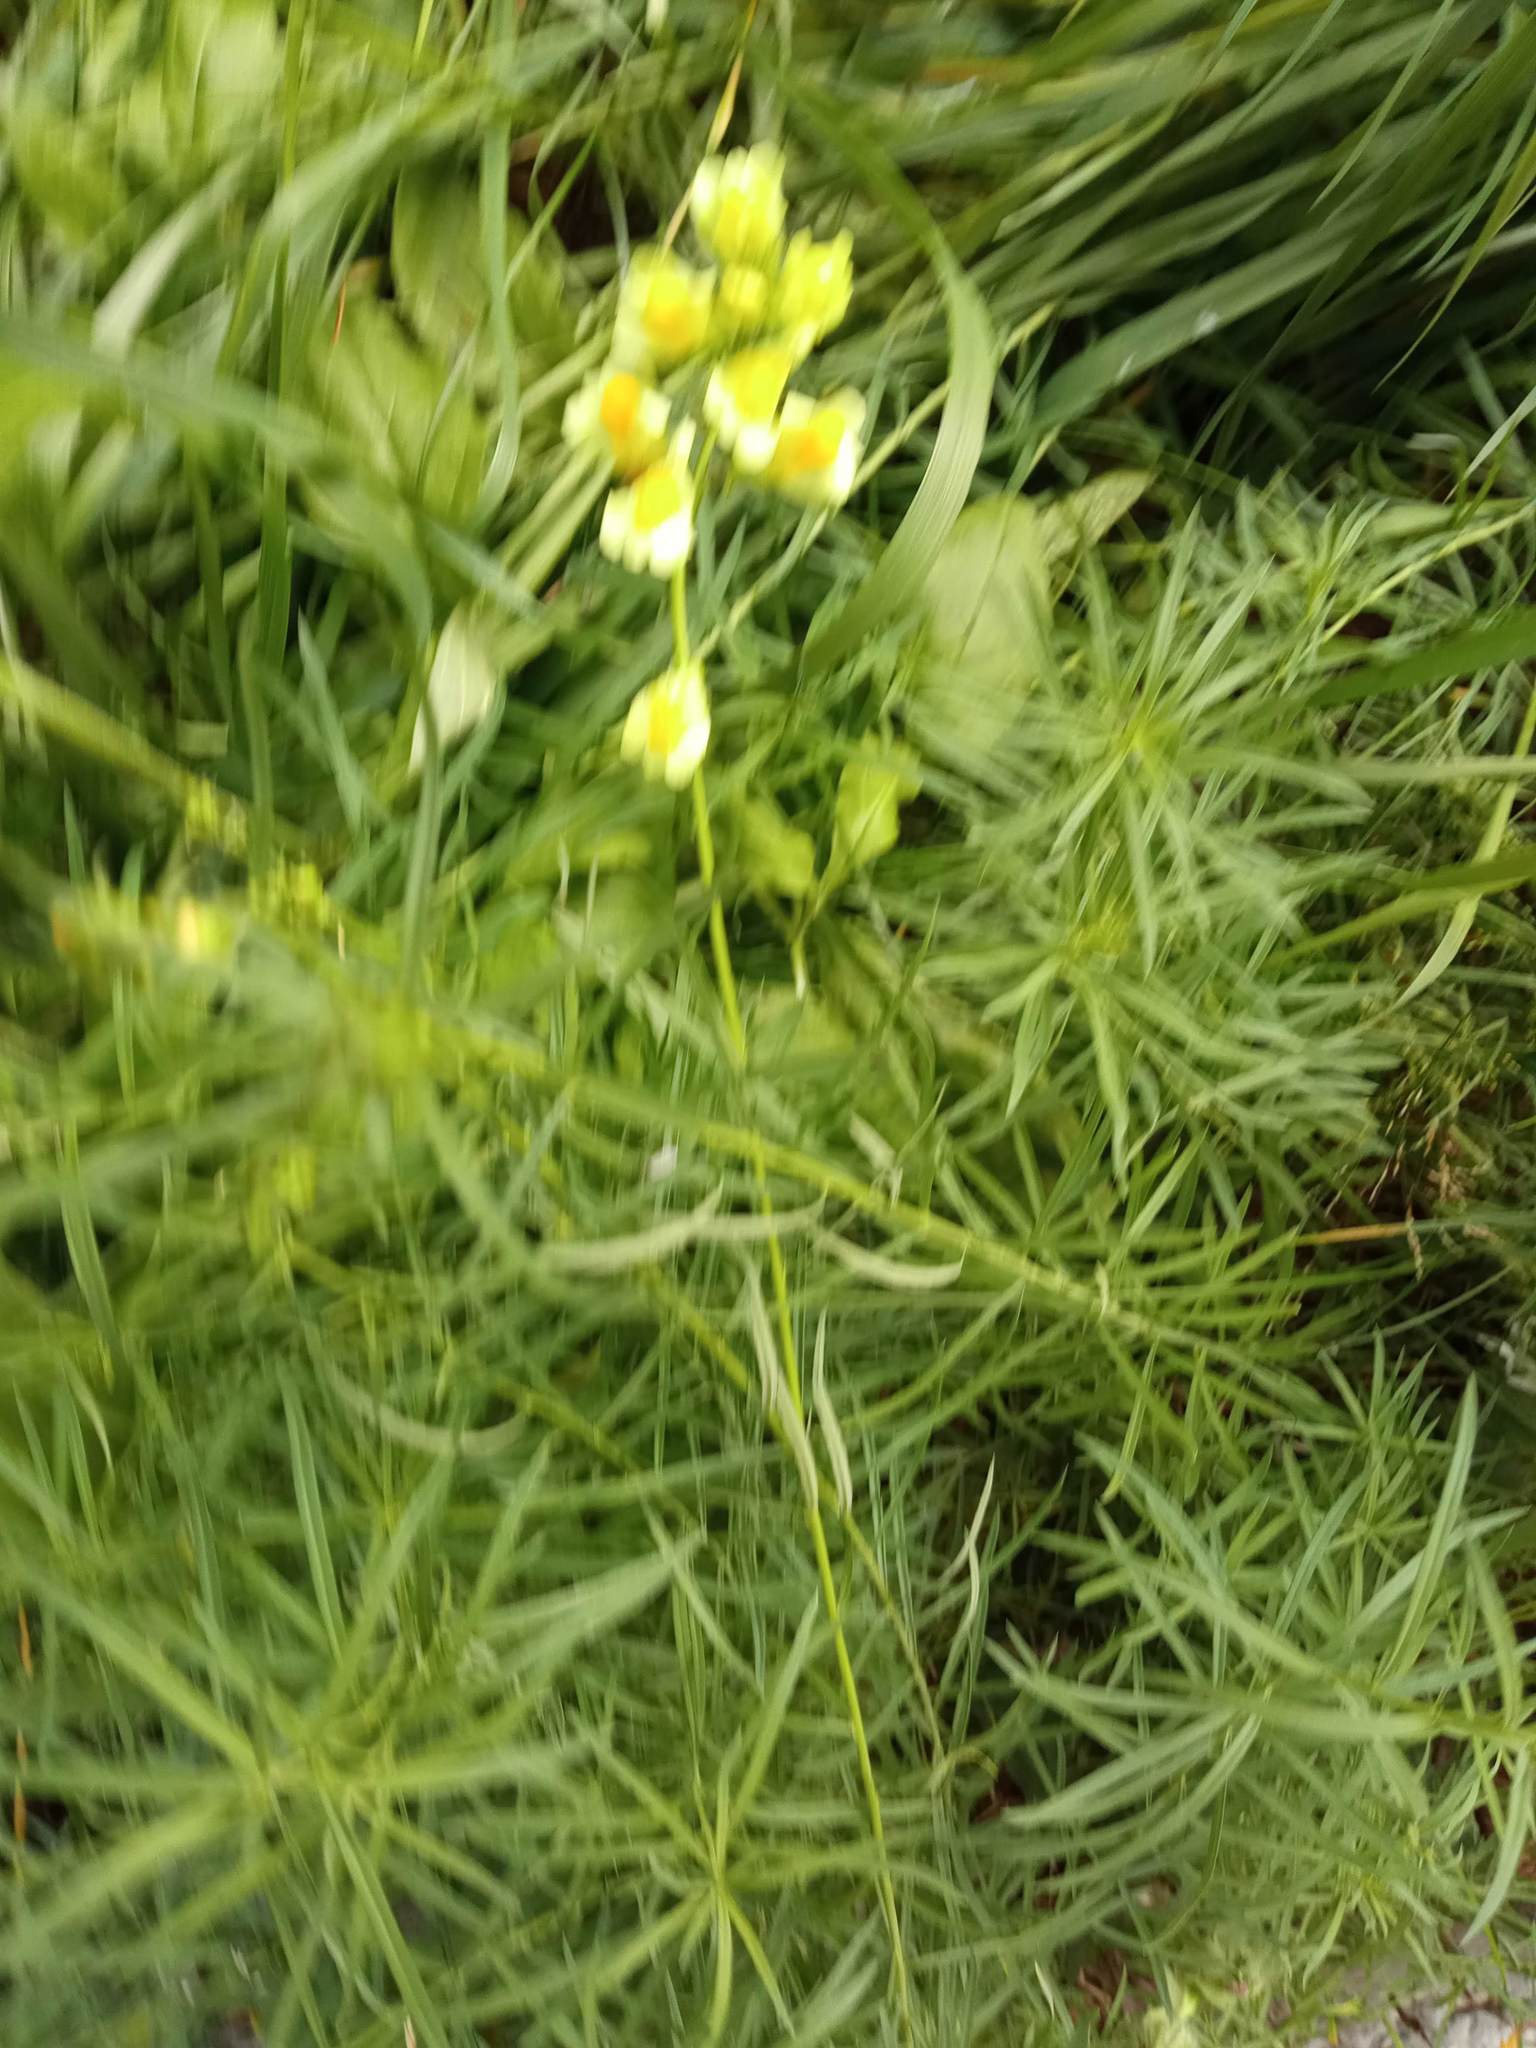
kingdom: Plantae
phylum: Tracheophyta
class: Magnoliopsida
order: Lamiales
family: Plantaginaceae
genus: Linaria
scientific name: Linaria vulgaris
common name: Butter and eggs
